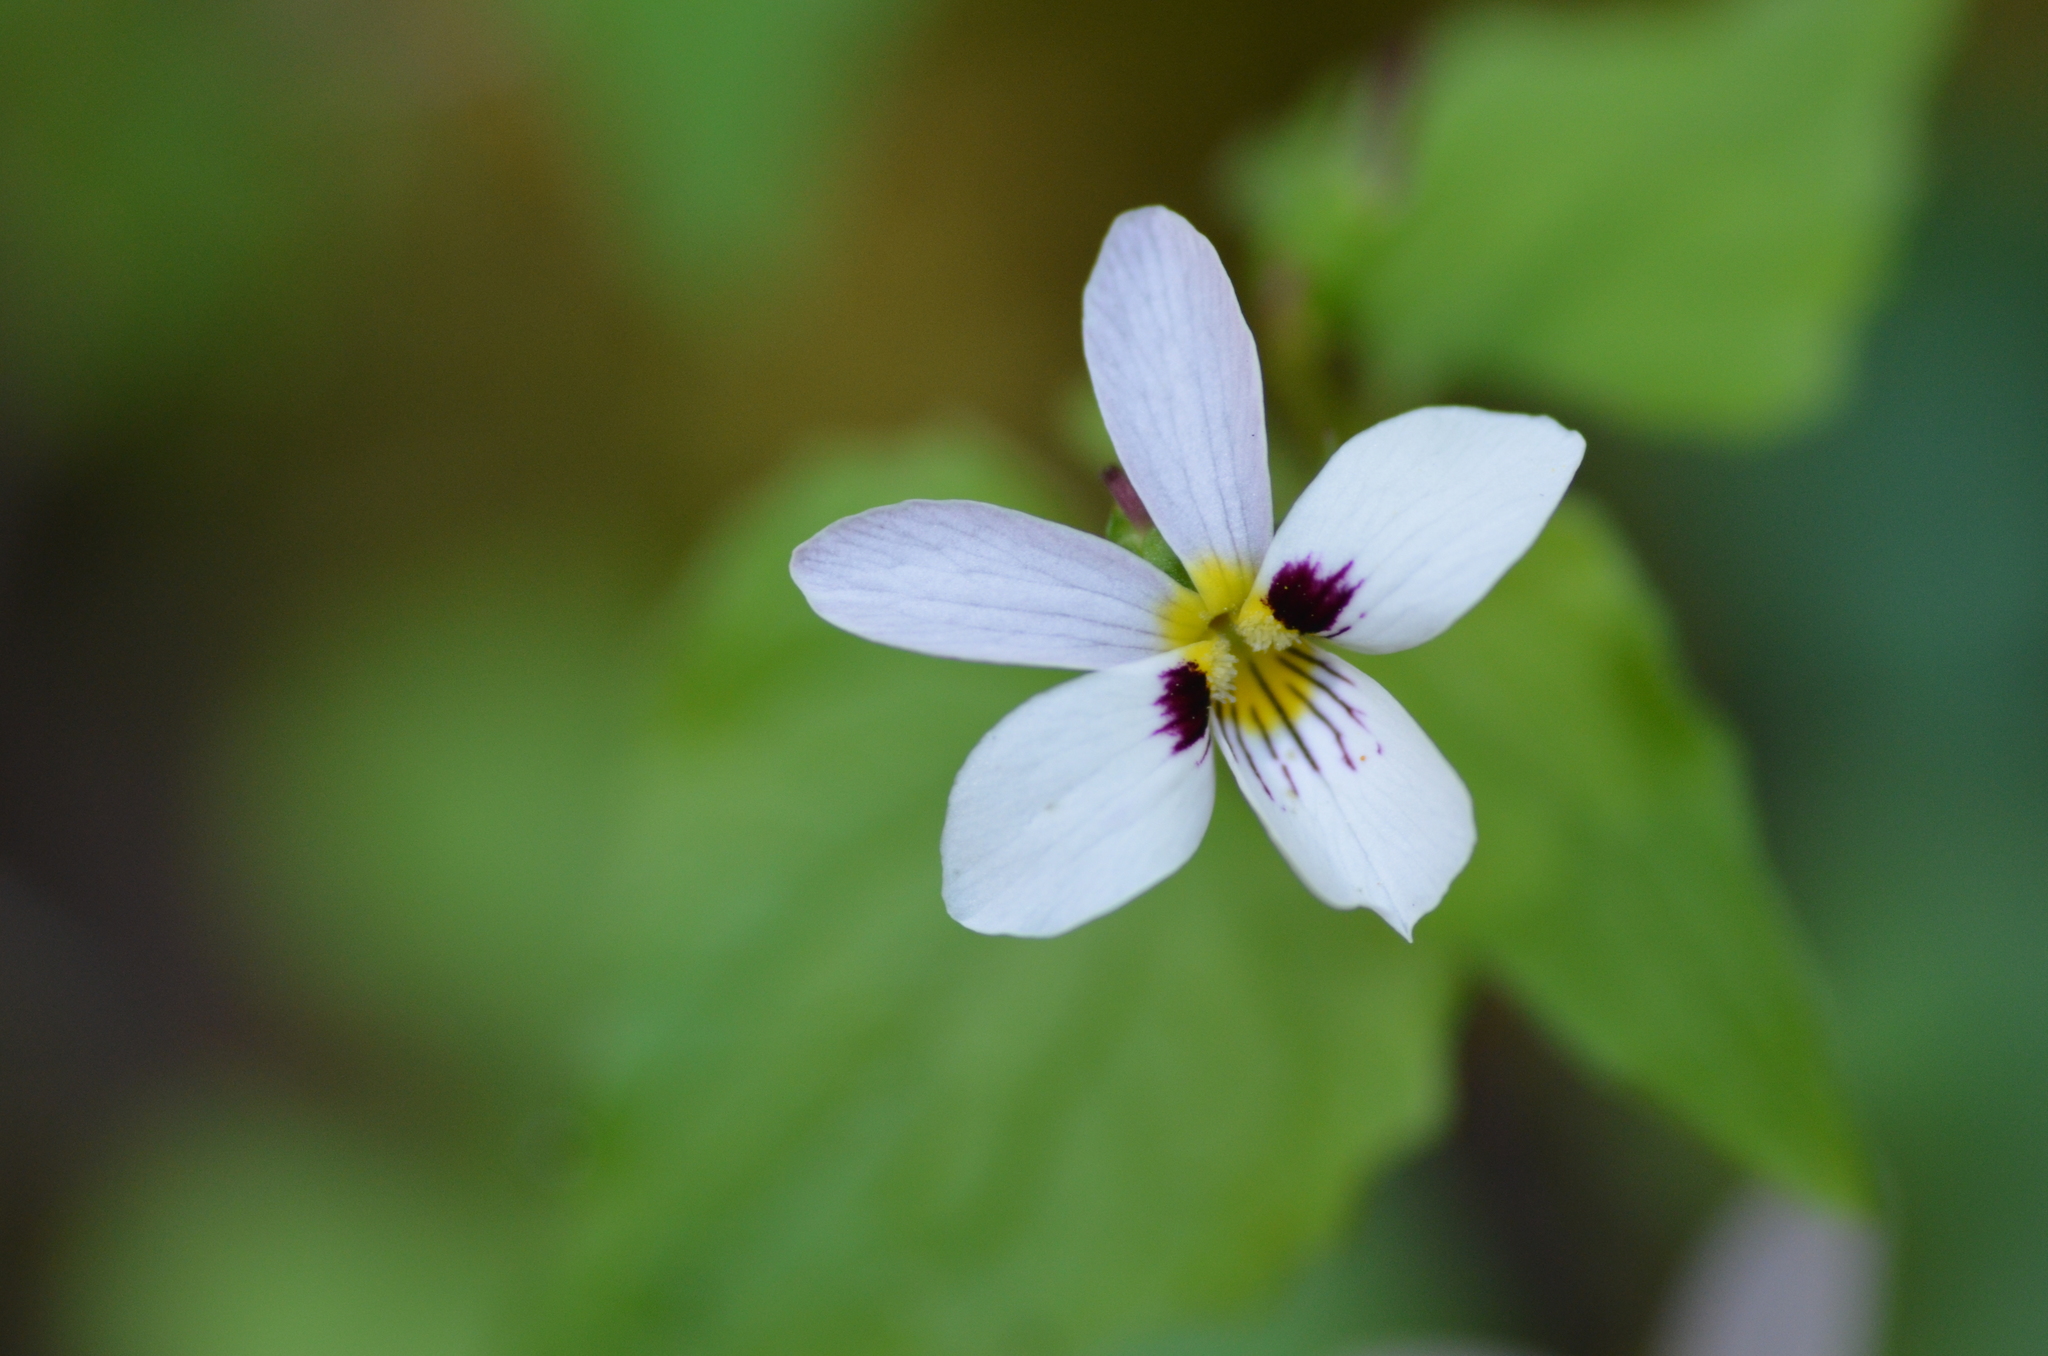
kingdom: Plantae
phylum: Tracheophyta
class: Magnoliopsida
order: Malpighiales
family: Violaceae
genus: Viola
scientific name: Viola
